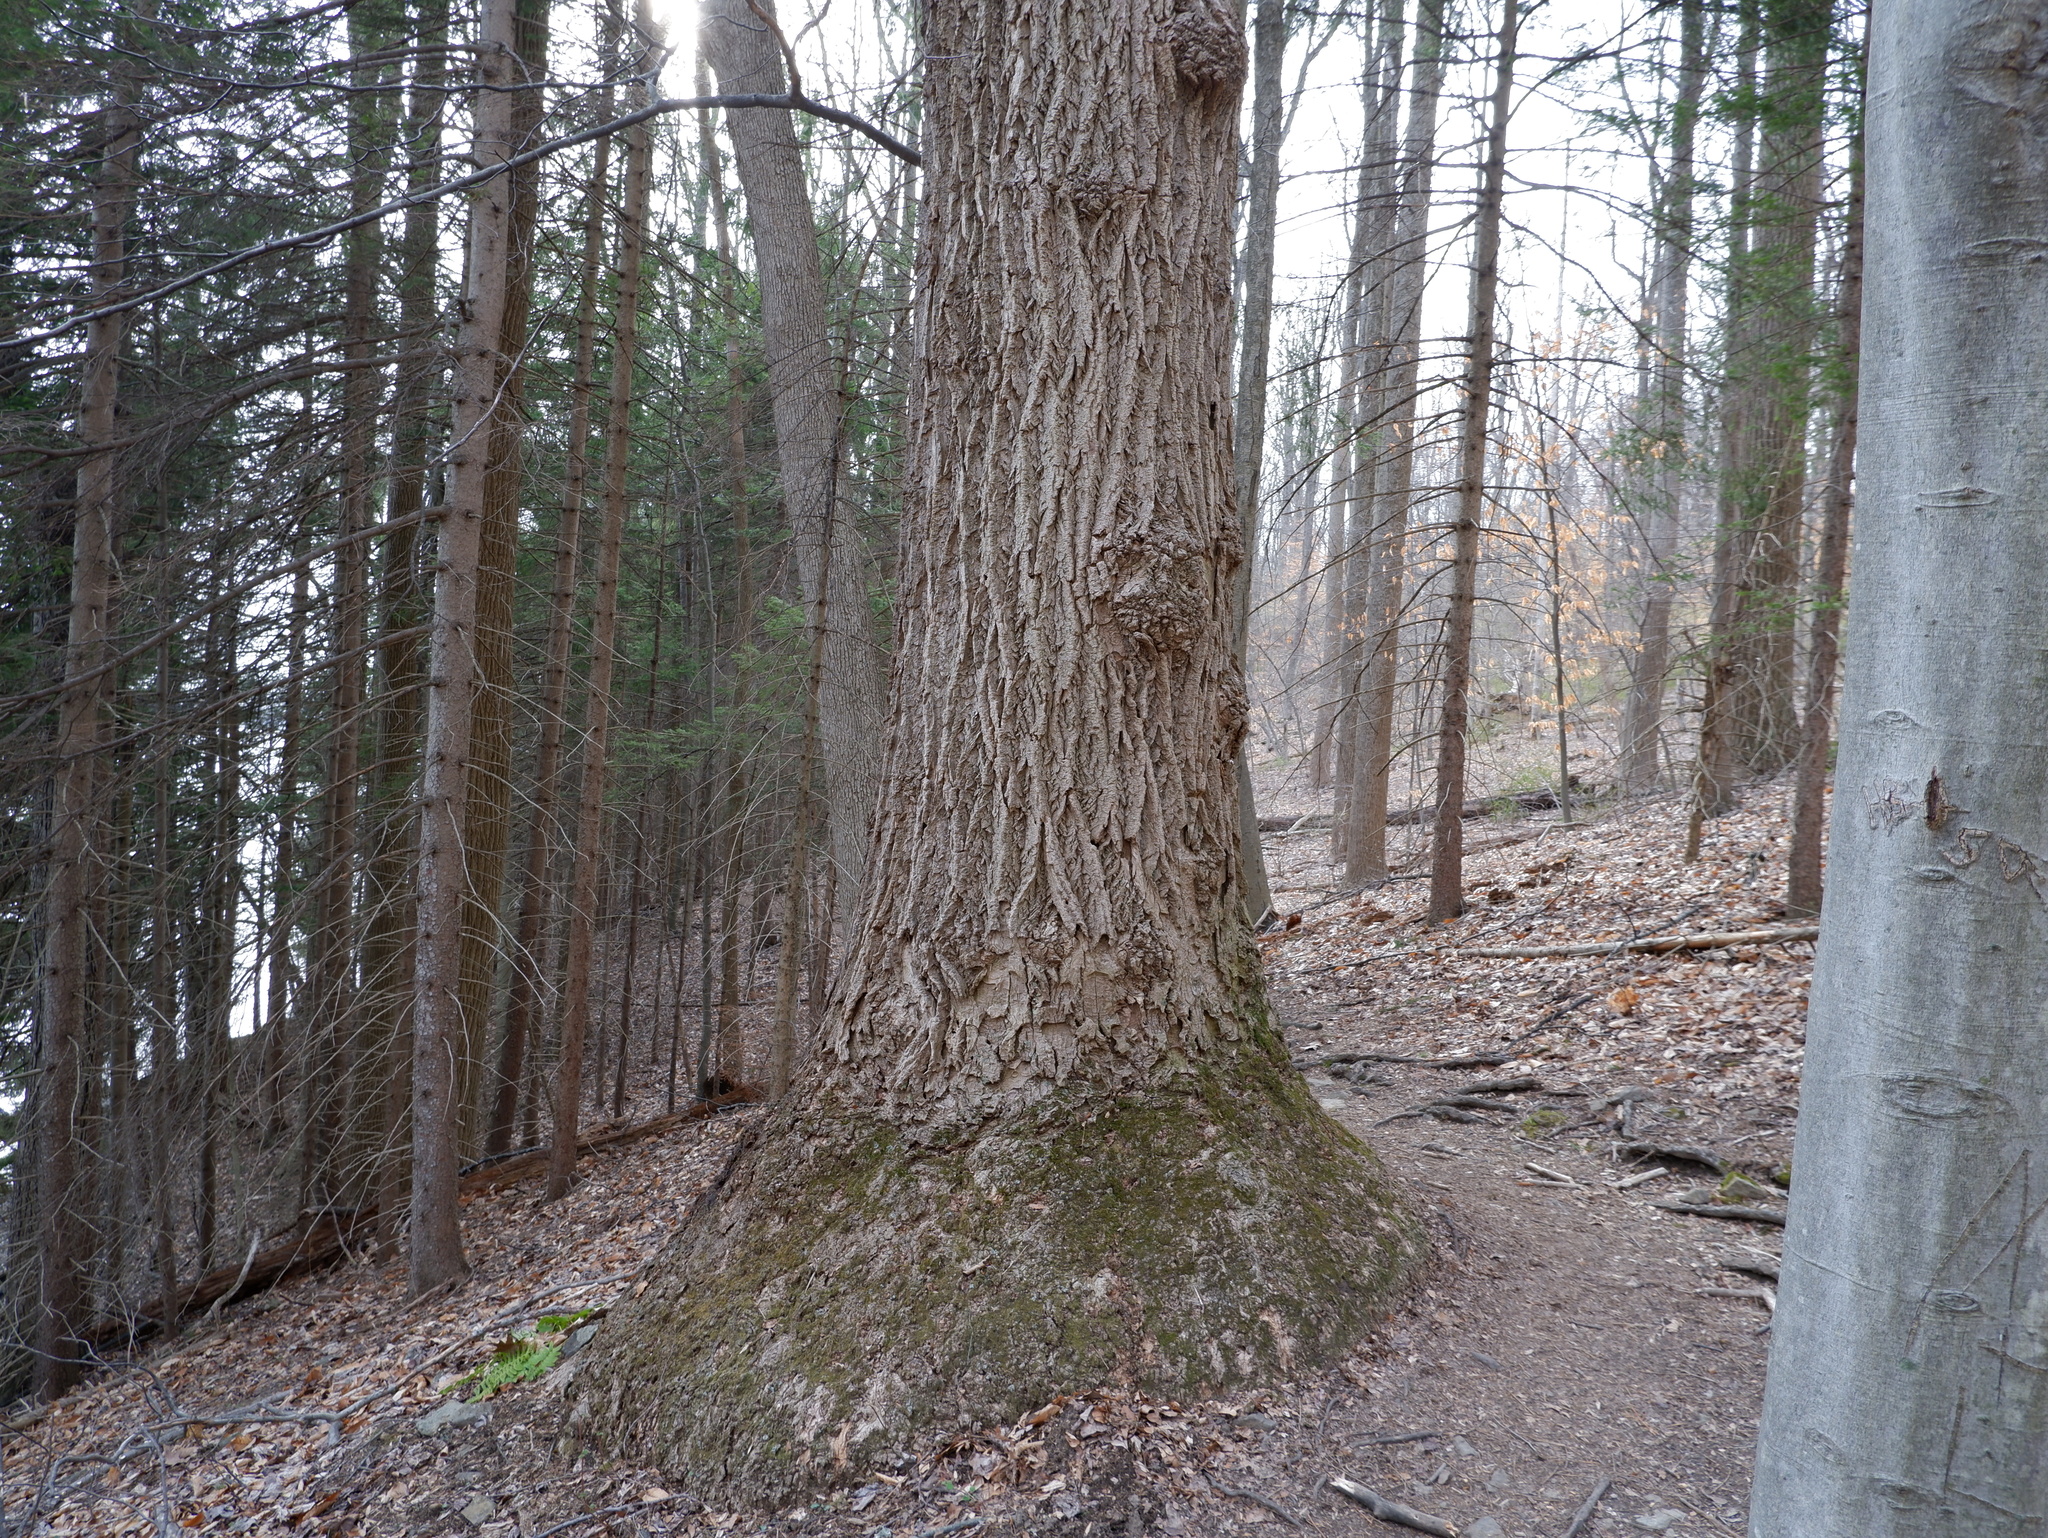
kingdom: Plantae
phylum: Tracheophyta
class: Magnoliopsida
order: Magnoliales
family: Magnoliaceae
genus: Liriodendron
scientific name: Liriodendron tulipifera
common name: Tulip tree
